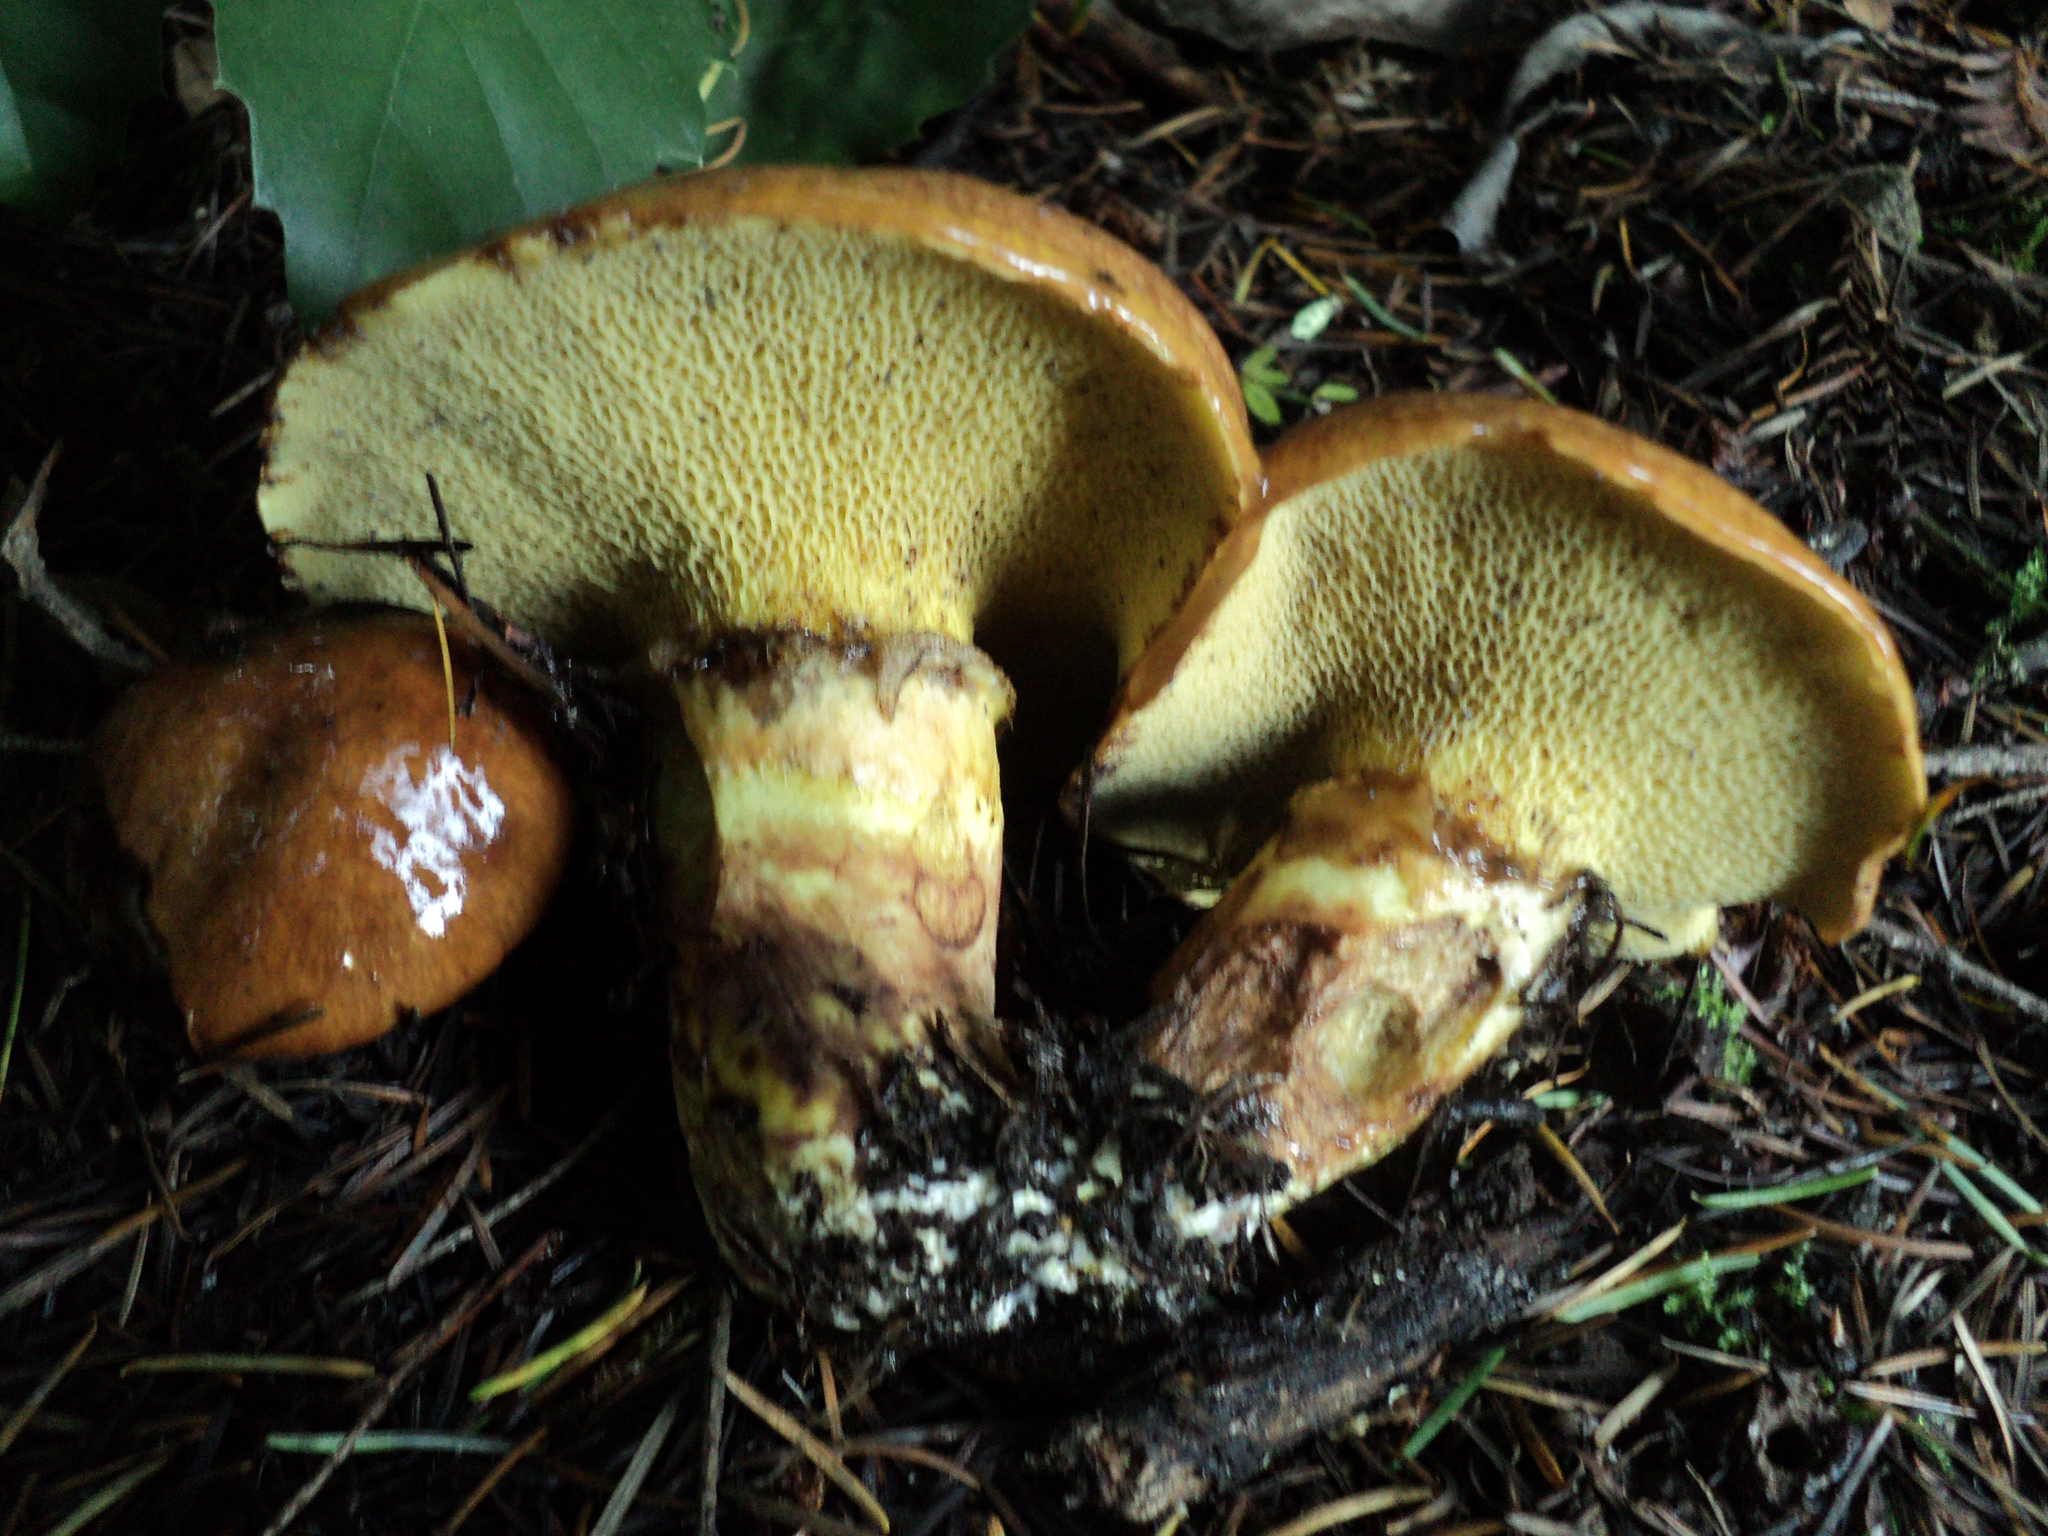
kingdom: Fungi
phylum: Basidiomycota
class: Agaricomycetes
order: Boletales
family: Suillaceae
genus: Suillus
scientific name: Suillus caerulescens
